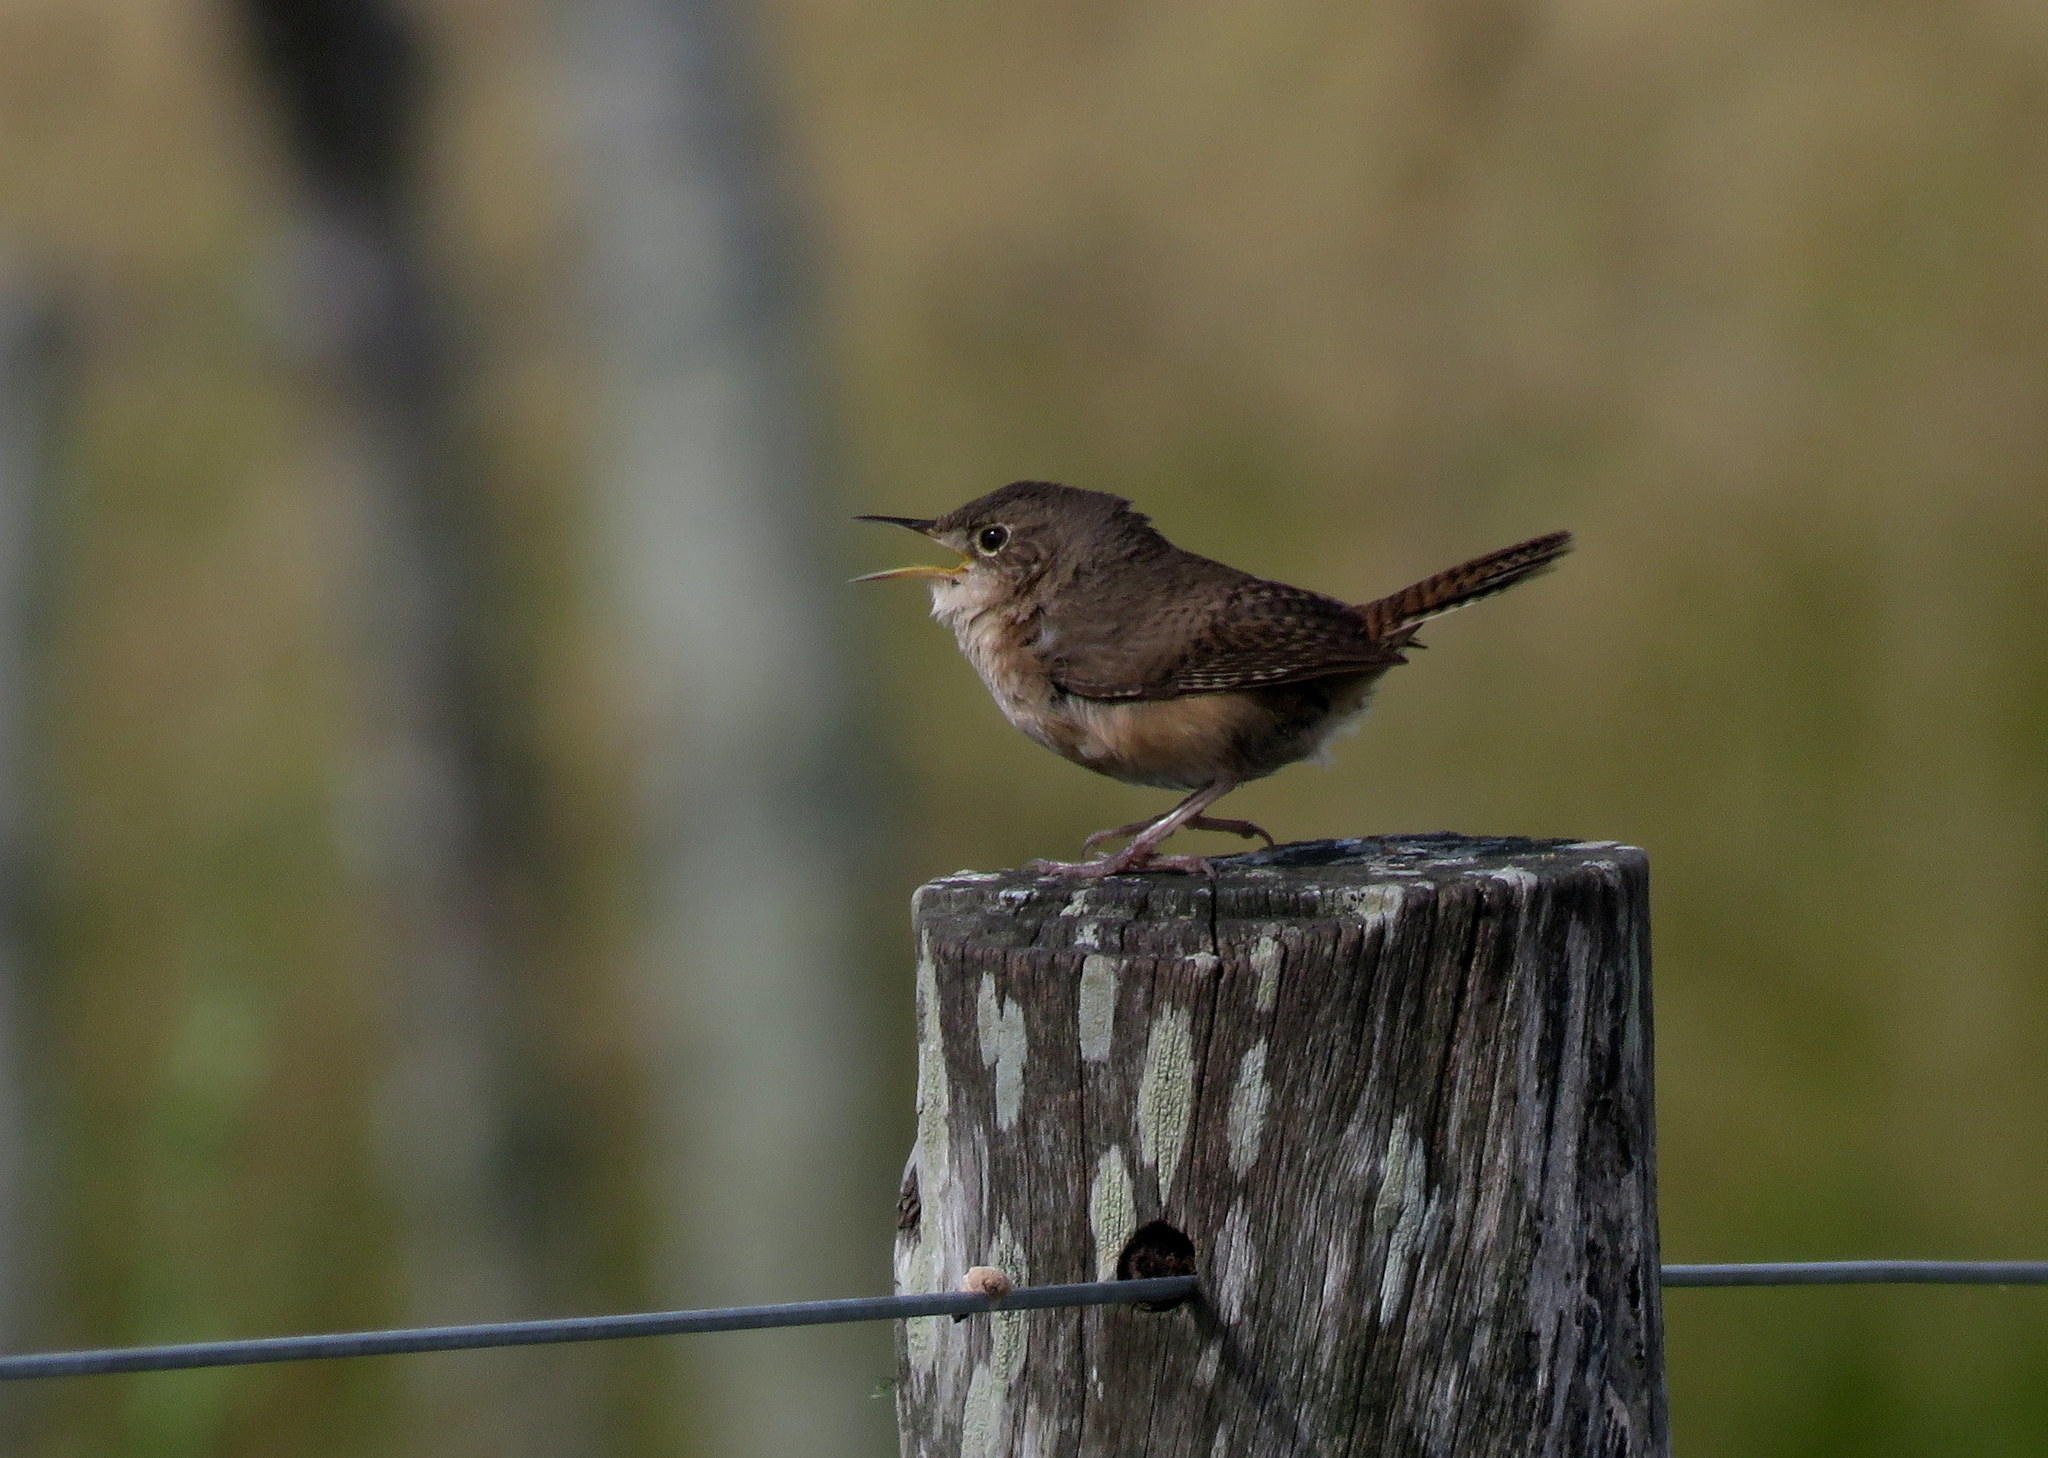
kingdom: Animalia
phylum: Chordata
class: Aves
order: Passeriformes
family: Troglodytidae
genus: Troglodytes
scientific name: Troglodytes aedon
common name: House wren
